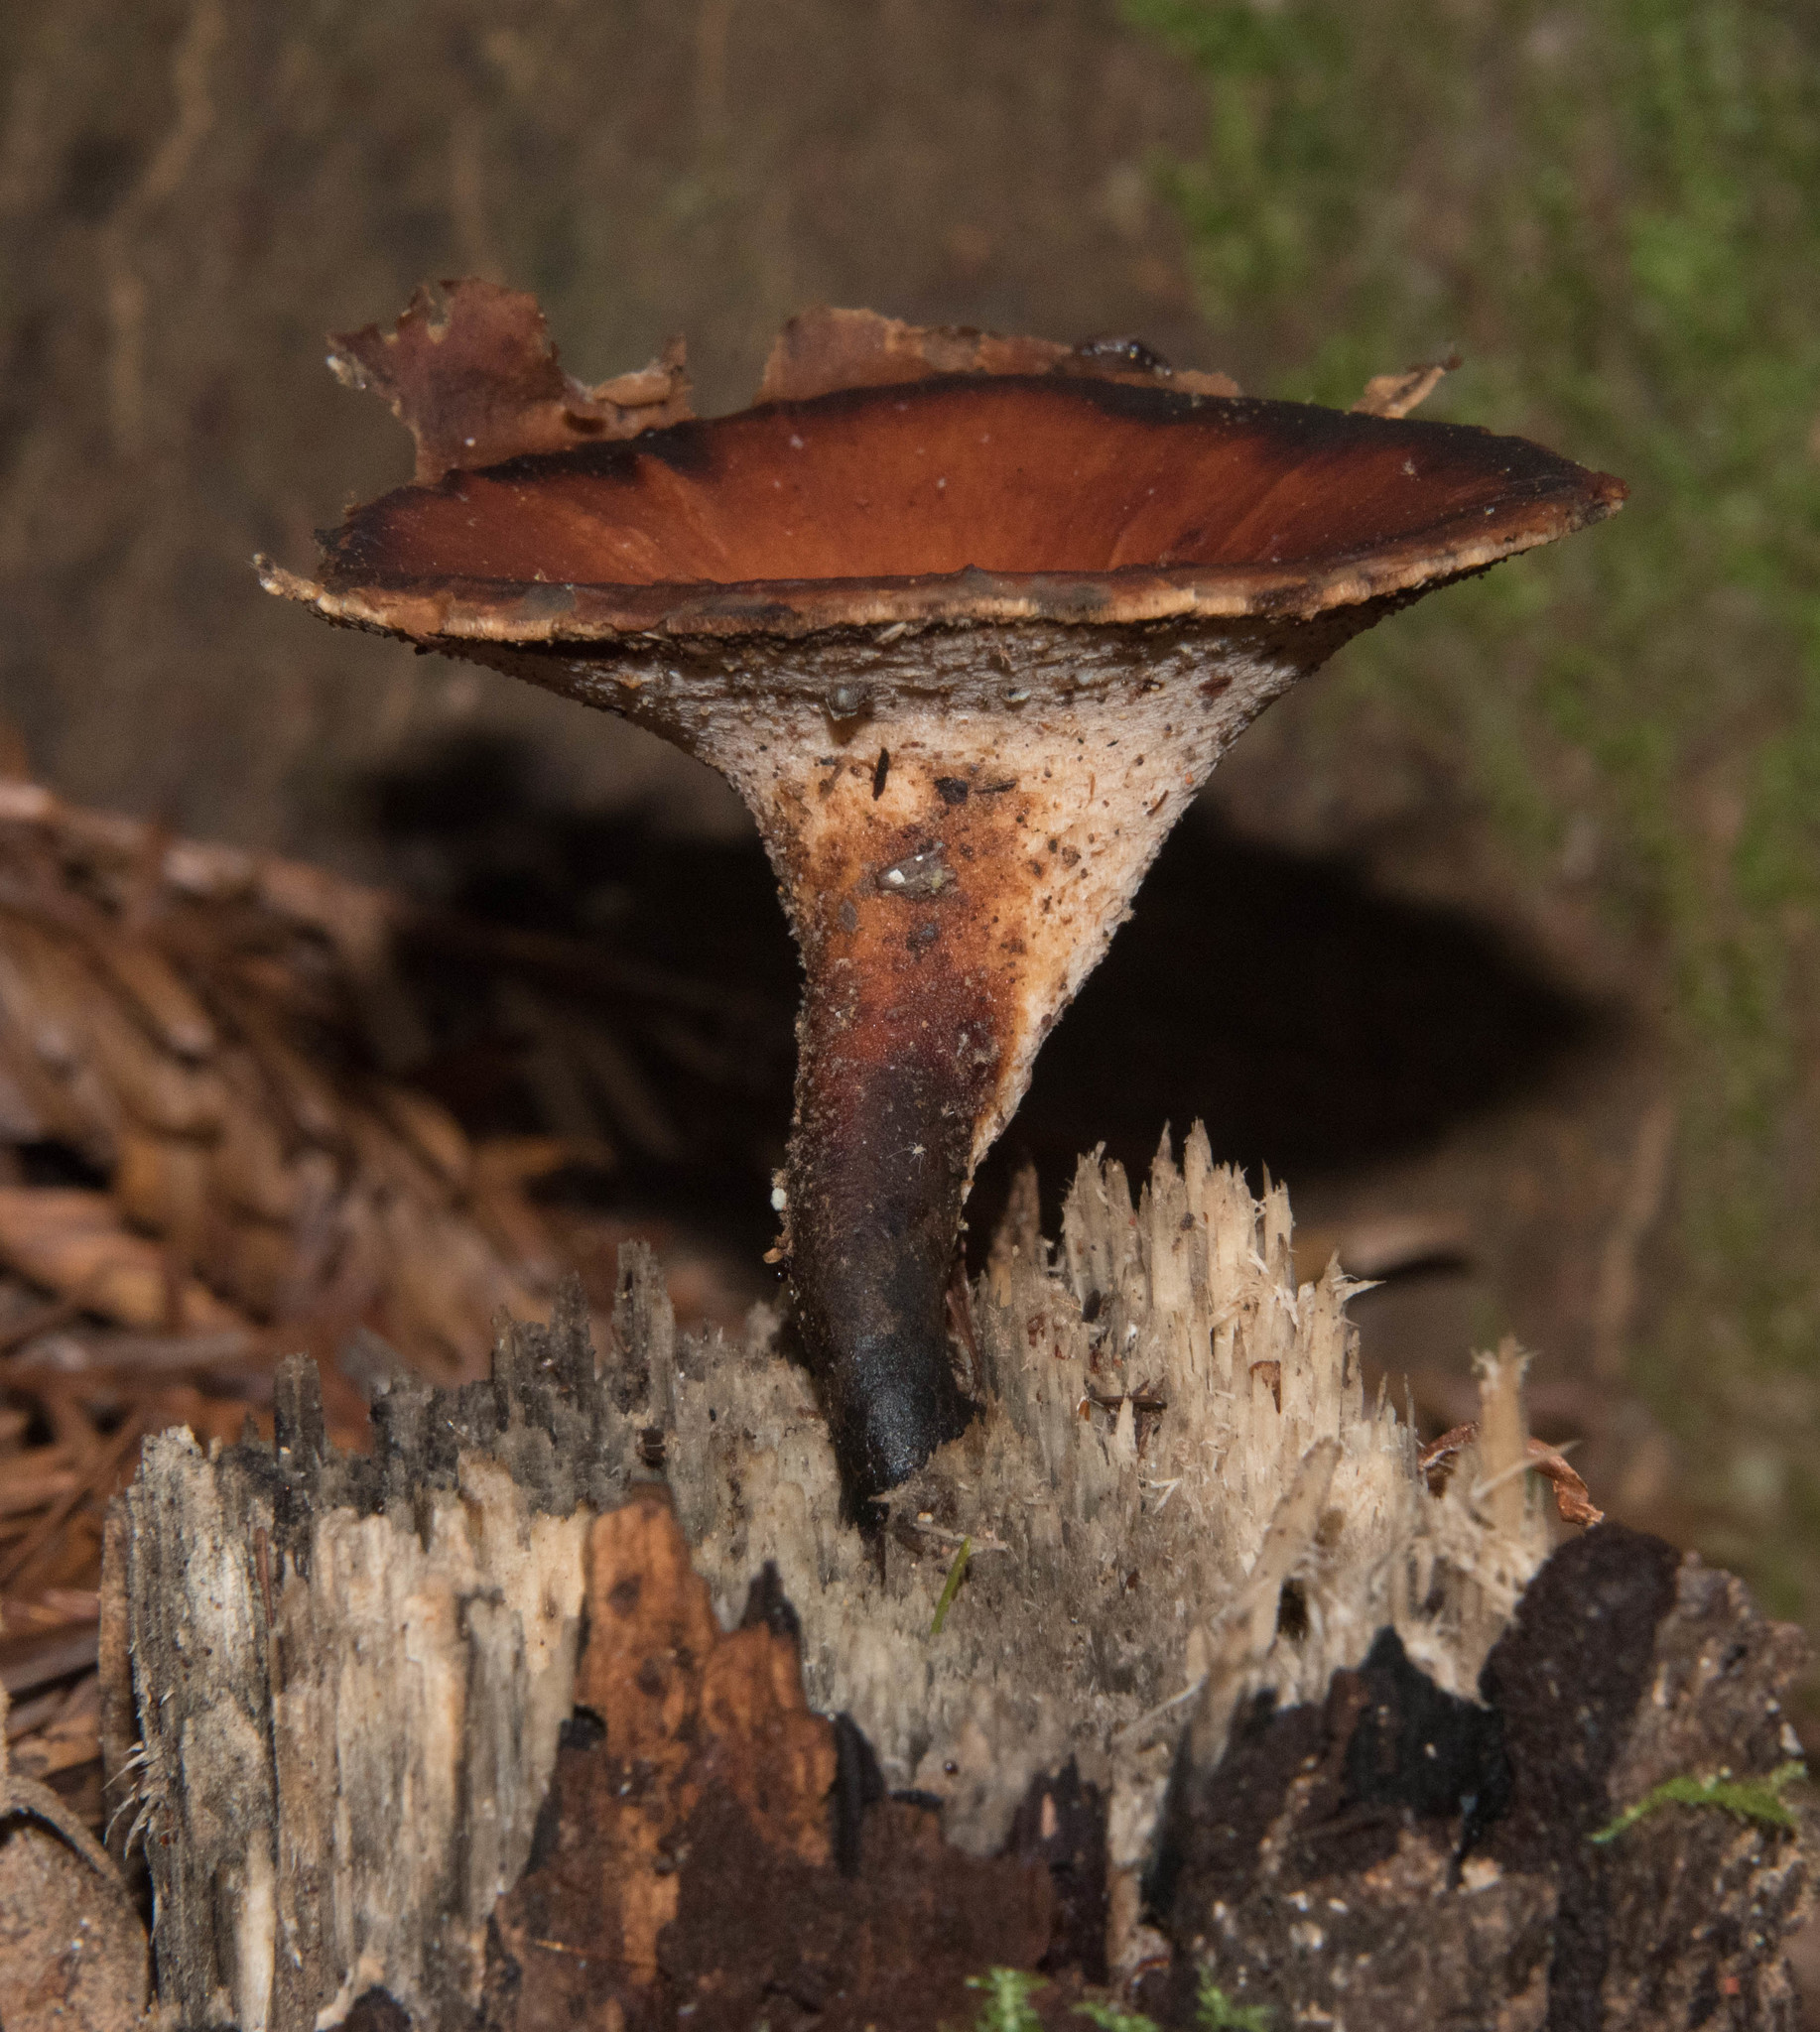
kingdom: Fungi
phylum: Basidiomycota
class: Agaricomycetes
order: Polyporales
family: Polyporaceae
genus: Picipes
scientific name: Picipes badius
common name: Bay polypore
